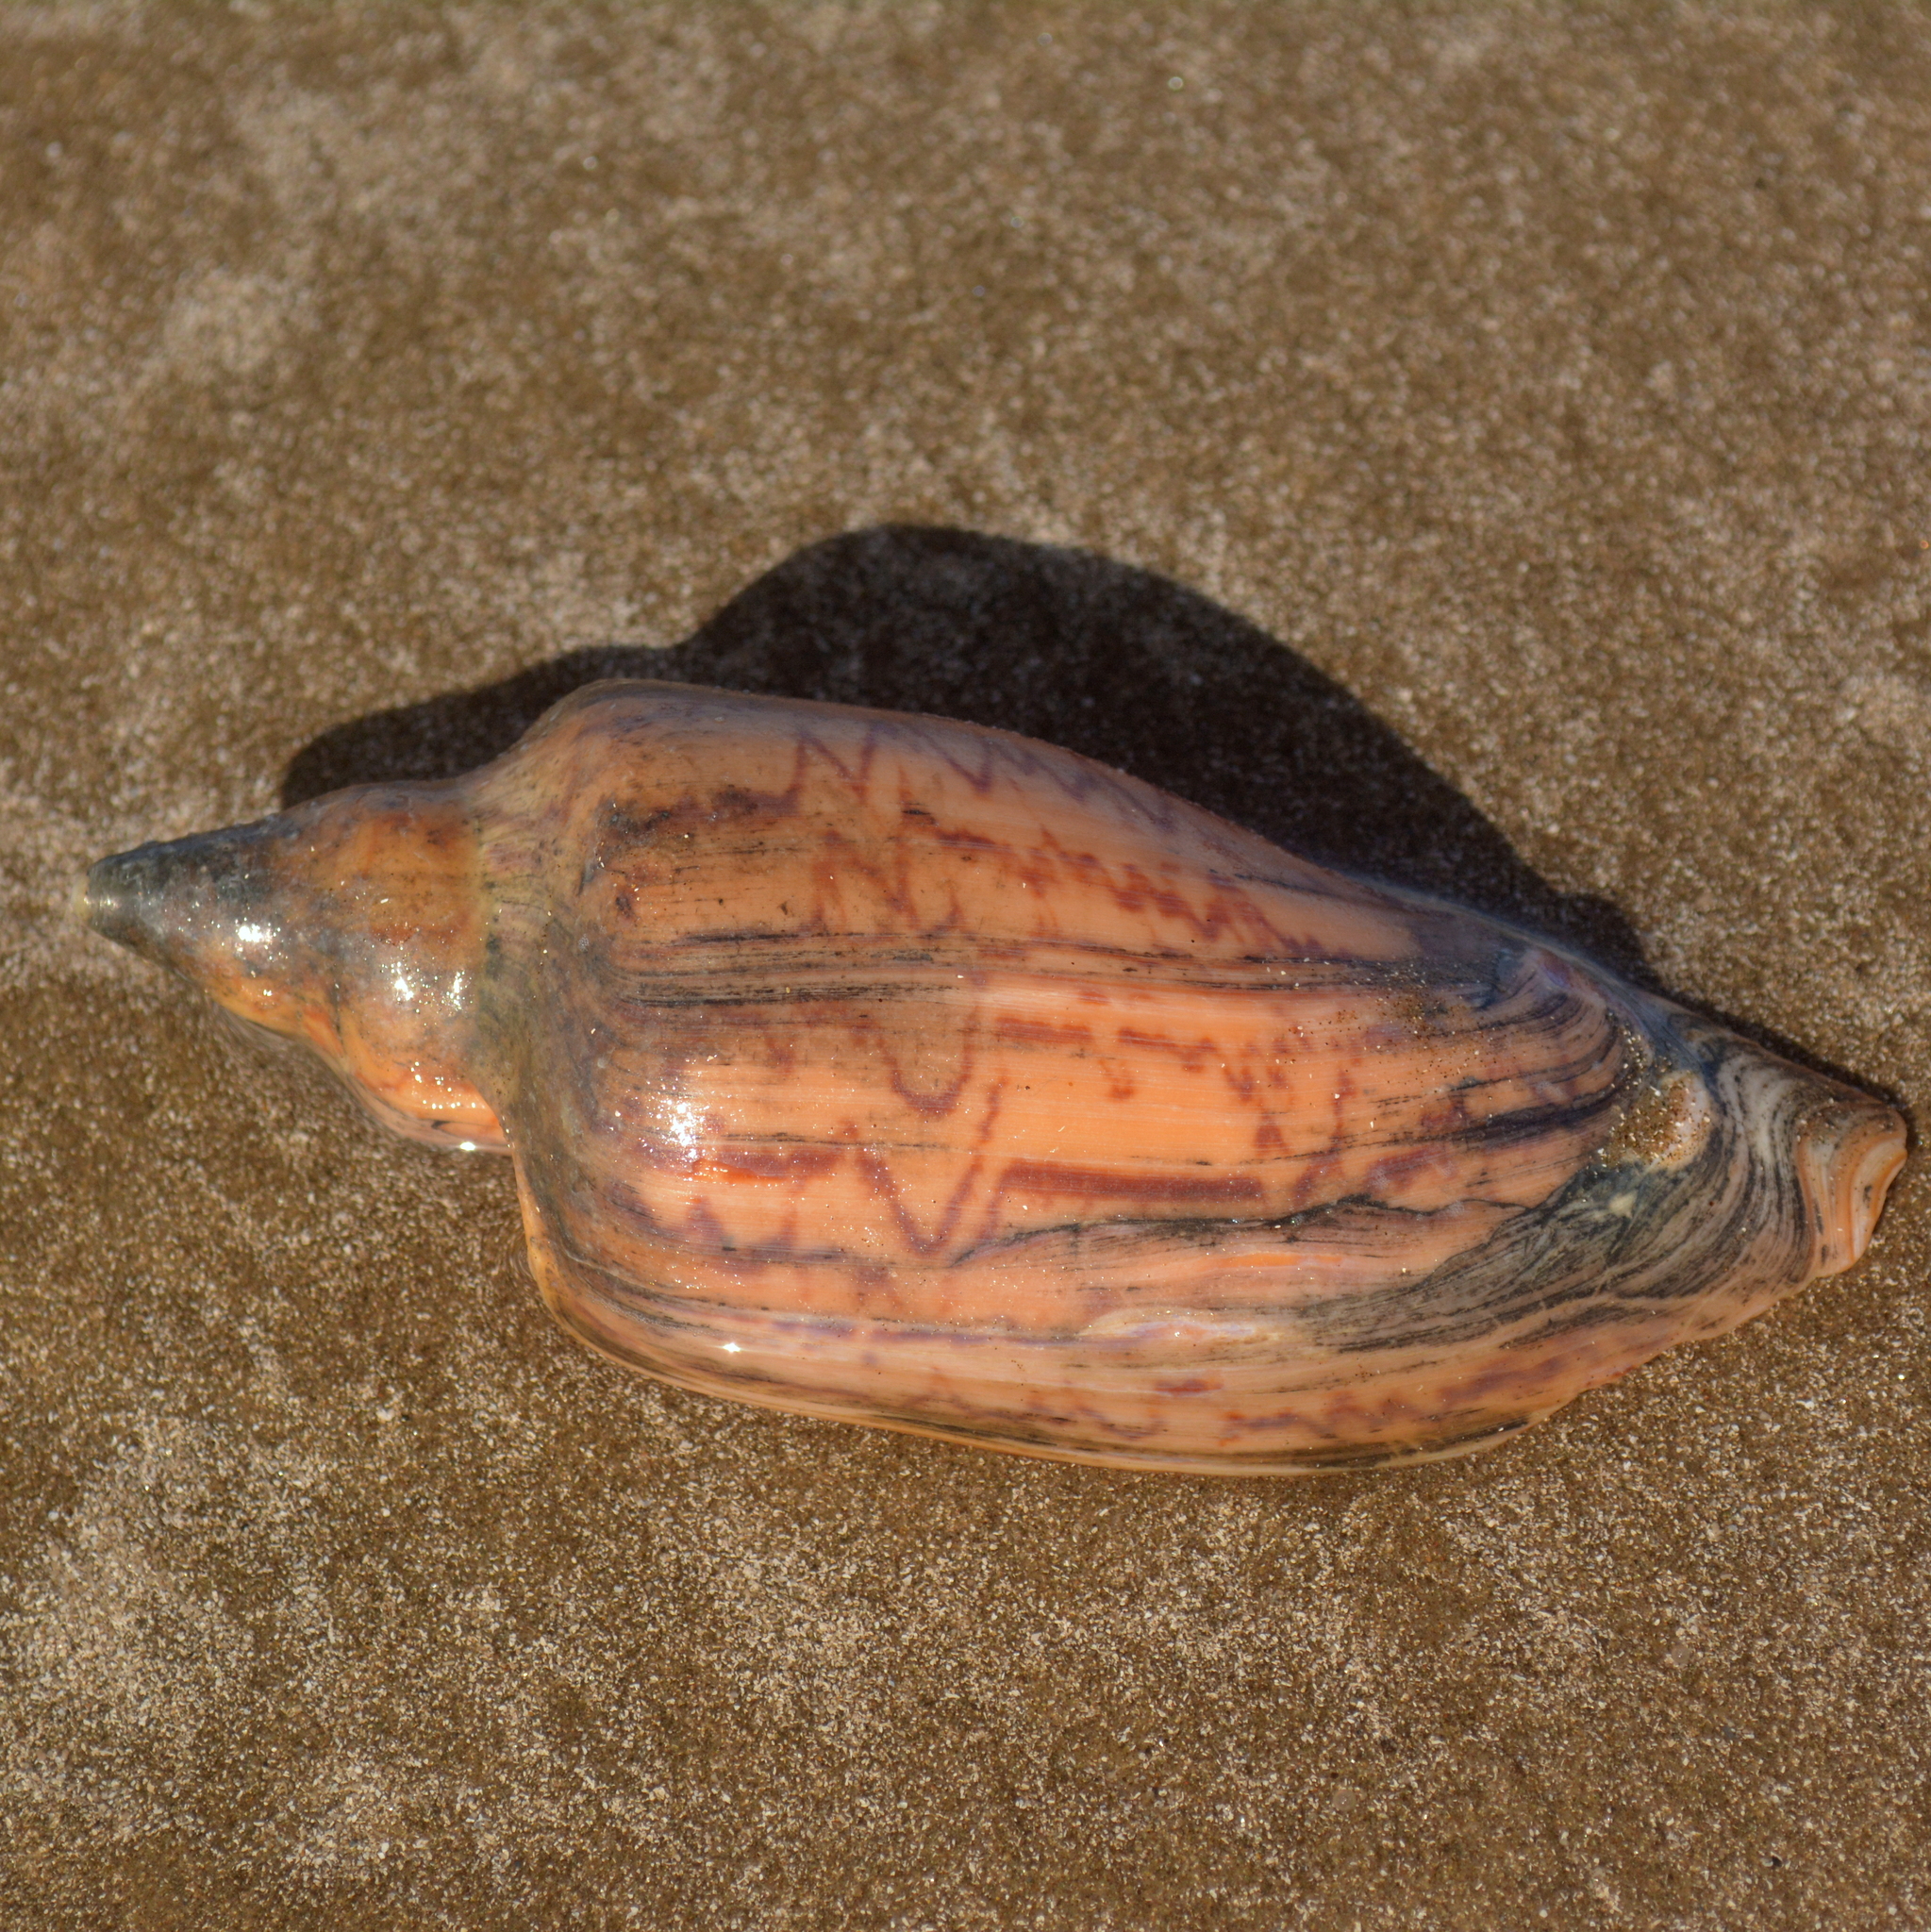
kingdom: Animalia
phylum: Mollusca
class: Gastropoda
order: Neogastropoda
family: Volutidae
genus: Zidona
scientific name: Zidona dufresnii
